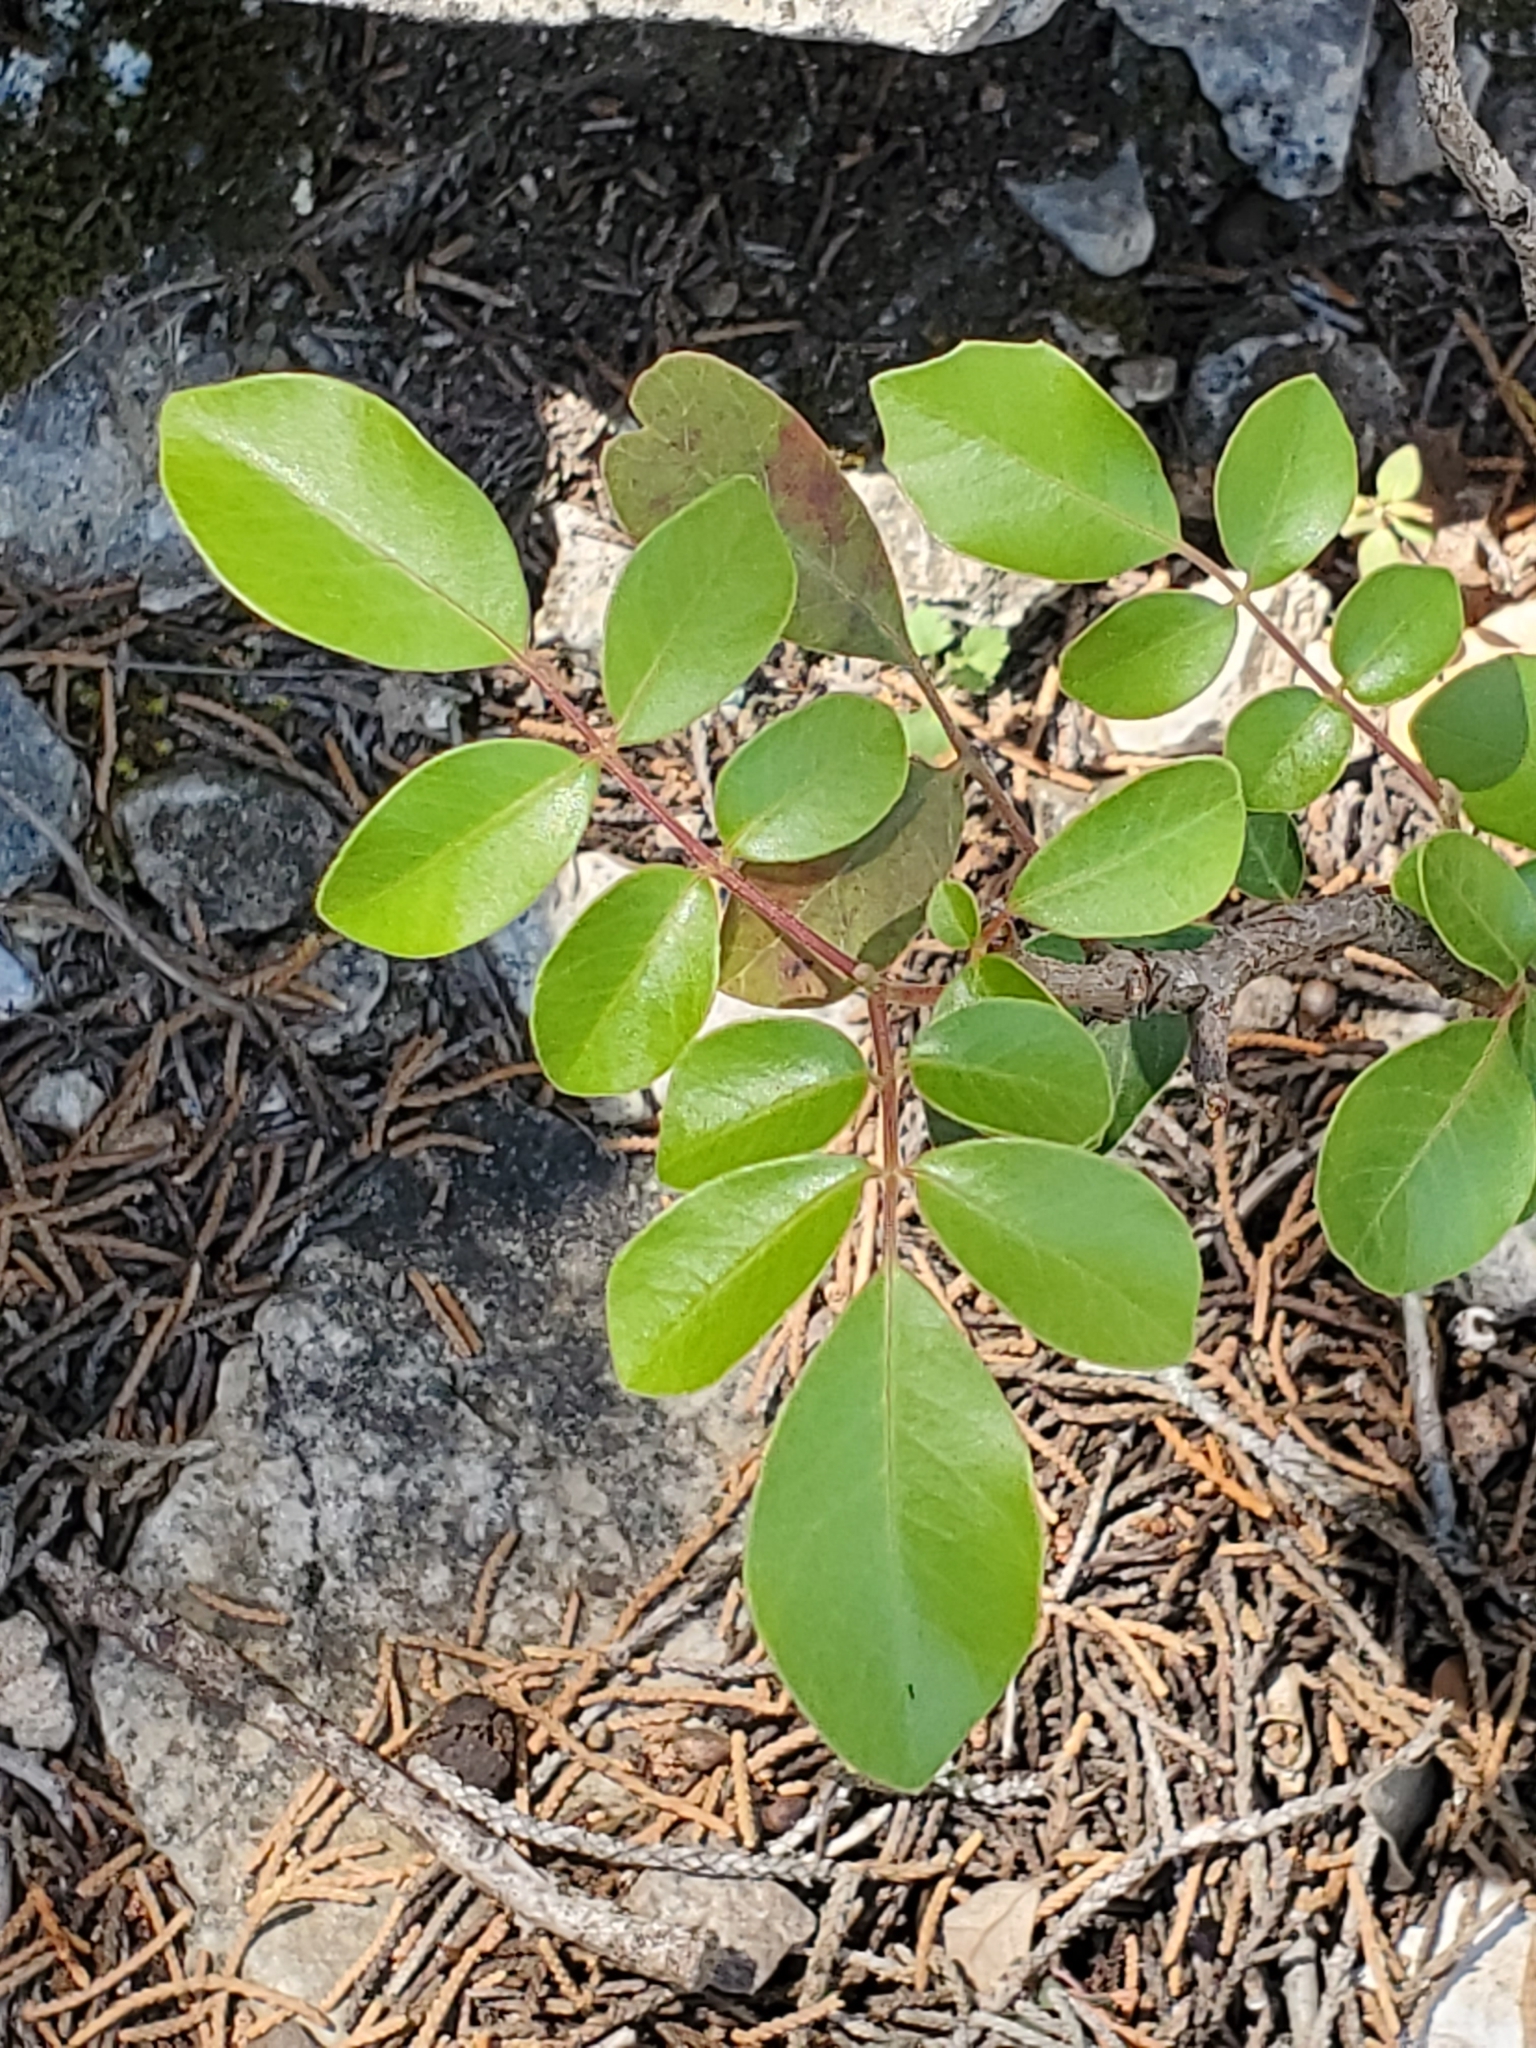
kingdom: Plantae
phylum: Tracheophyta
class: Magnoliopsida
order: Sapindales
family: Anacardiaceae
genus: Rhus
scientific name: Rhus virens
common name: Evergreen sumac
